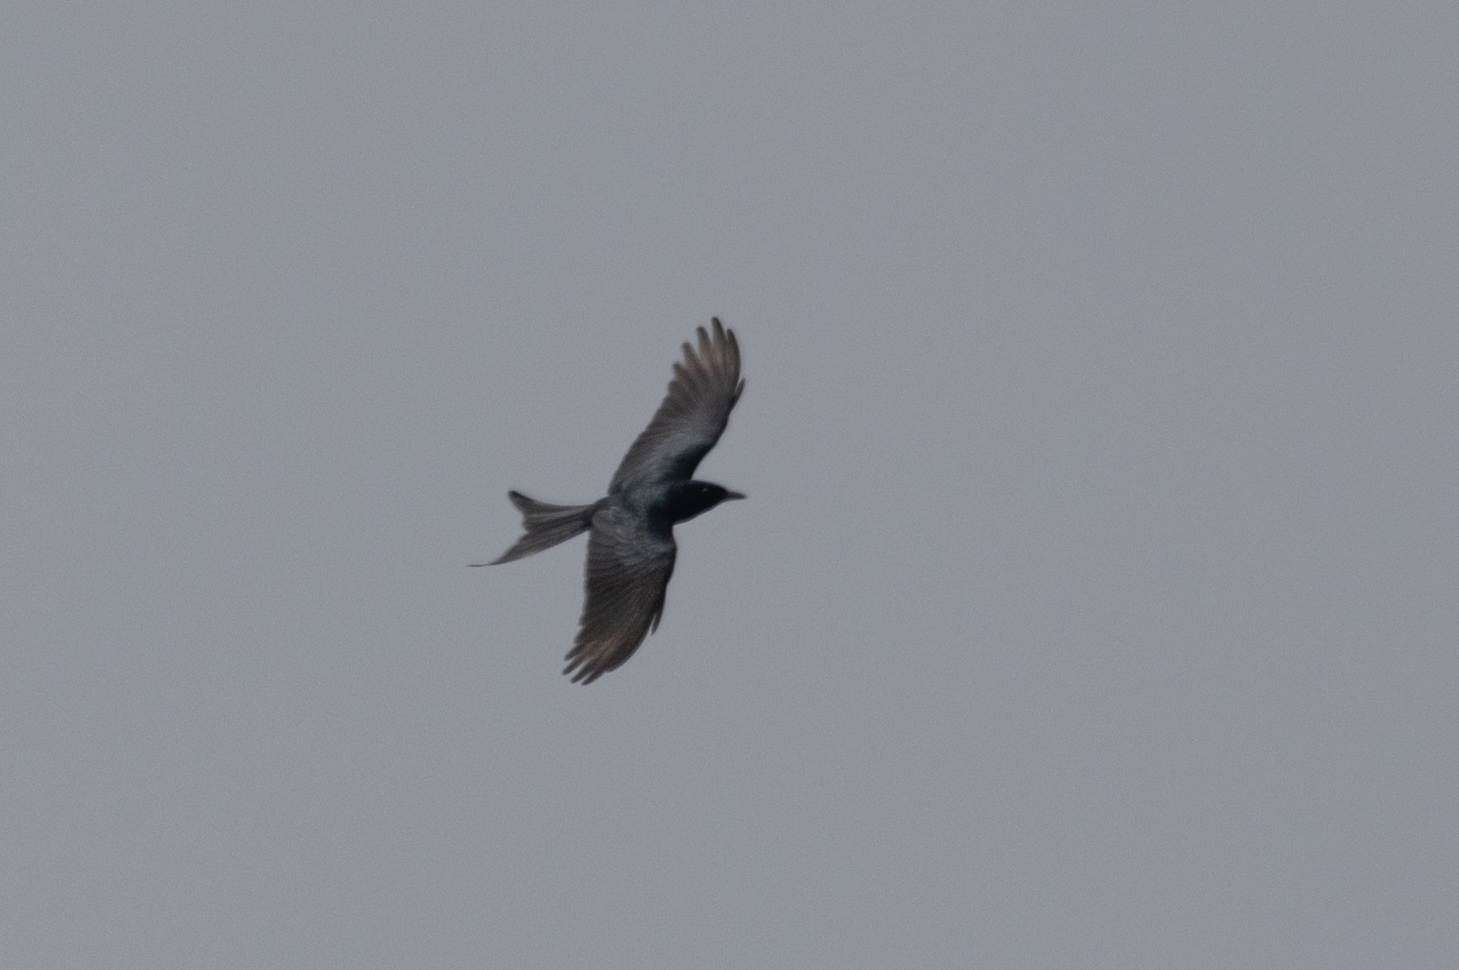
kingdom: Animalia
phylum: Chordata
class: Aves
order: Passeriformes
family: Dicruridae
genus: Dicrurus
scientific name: Dicrurus macrocercus
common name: Black drongo
